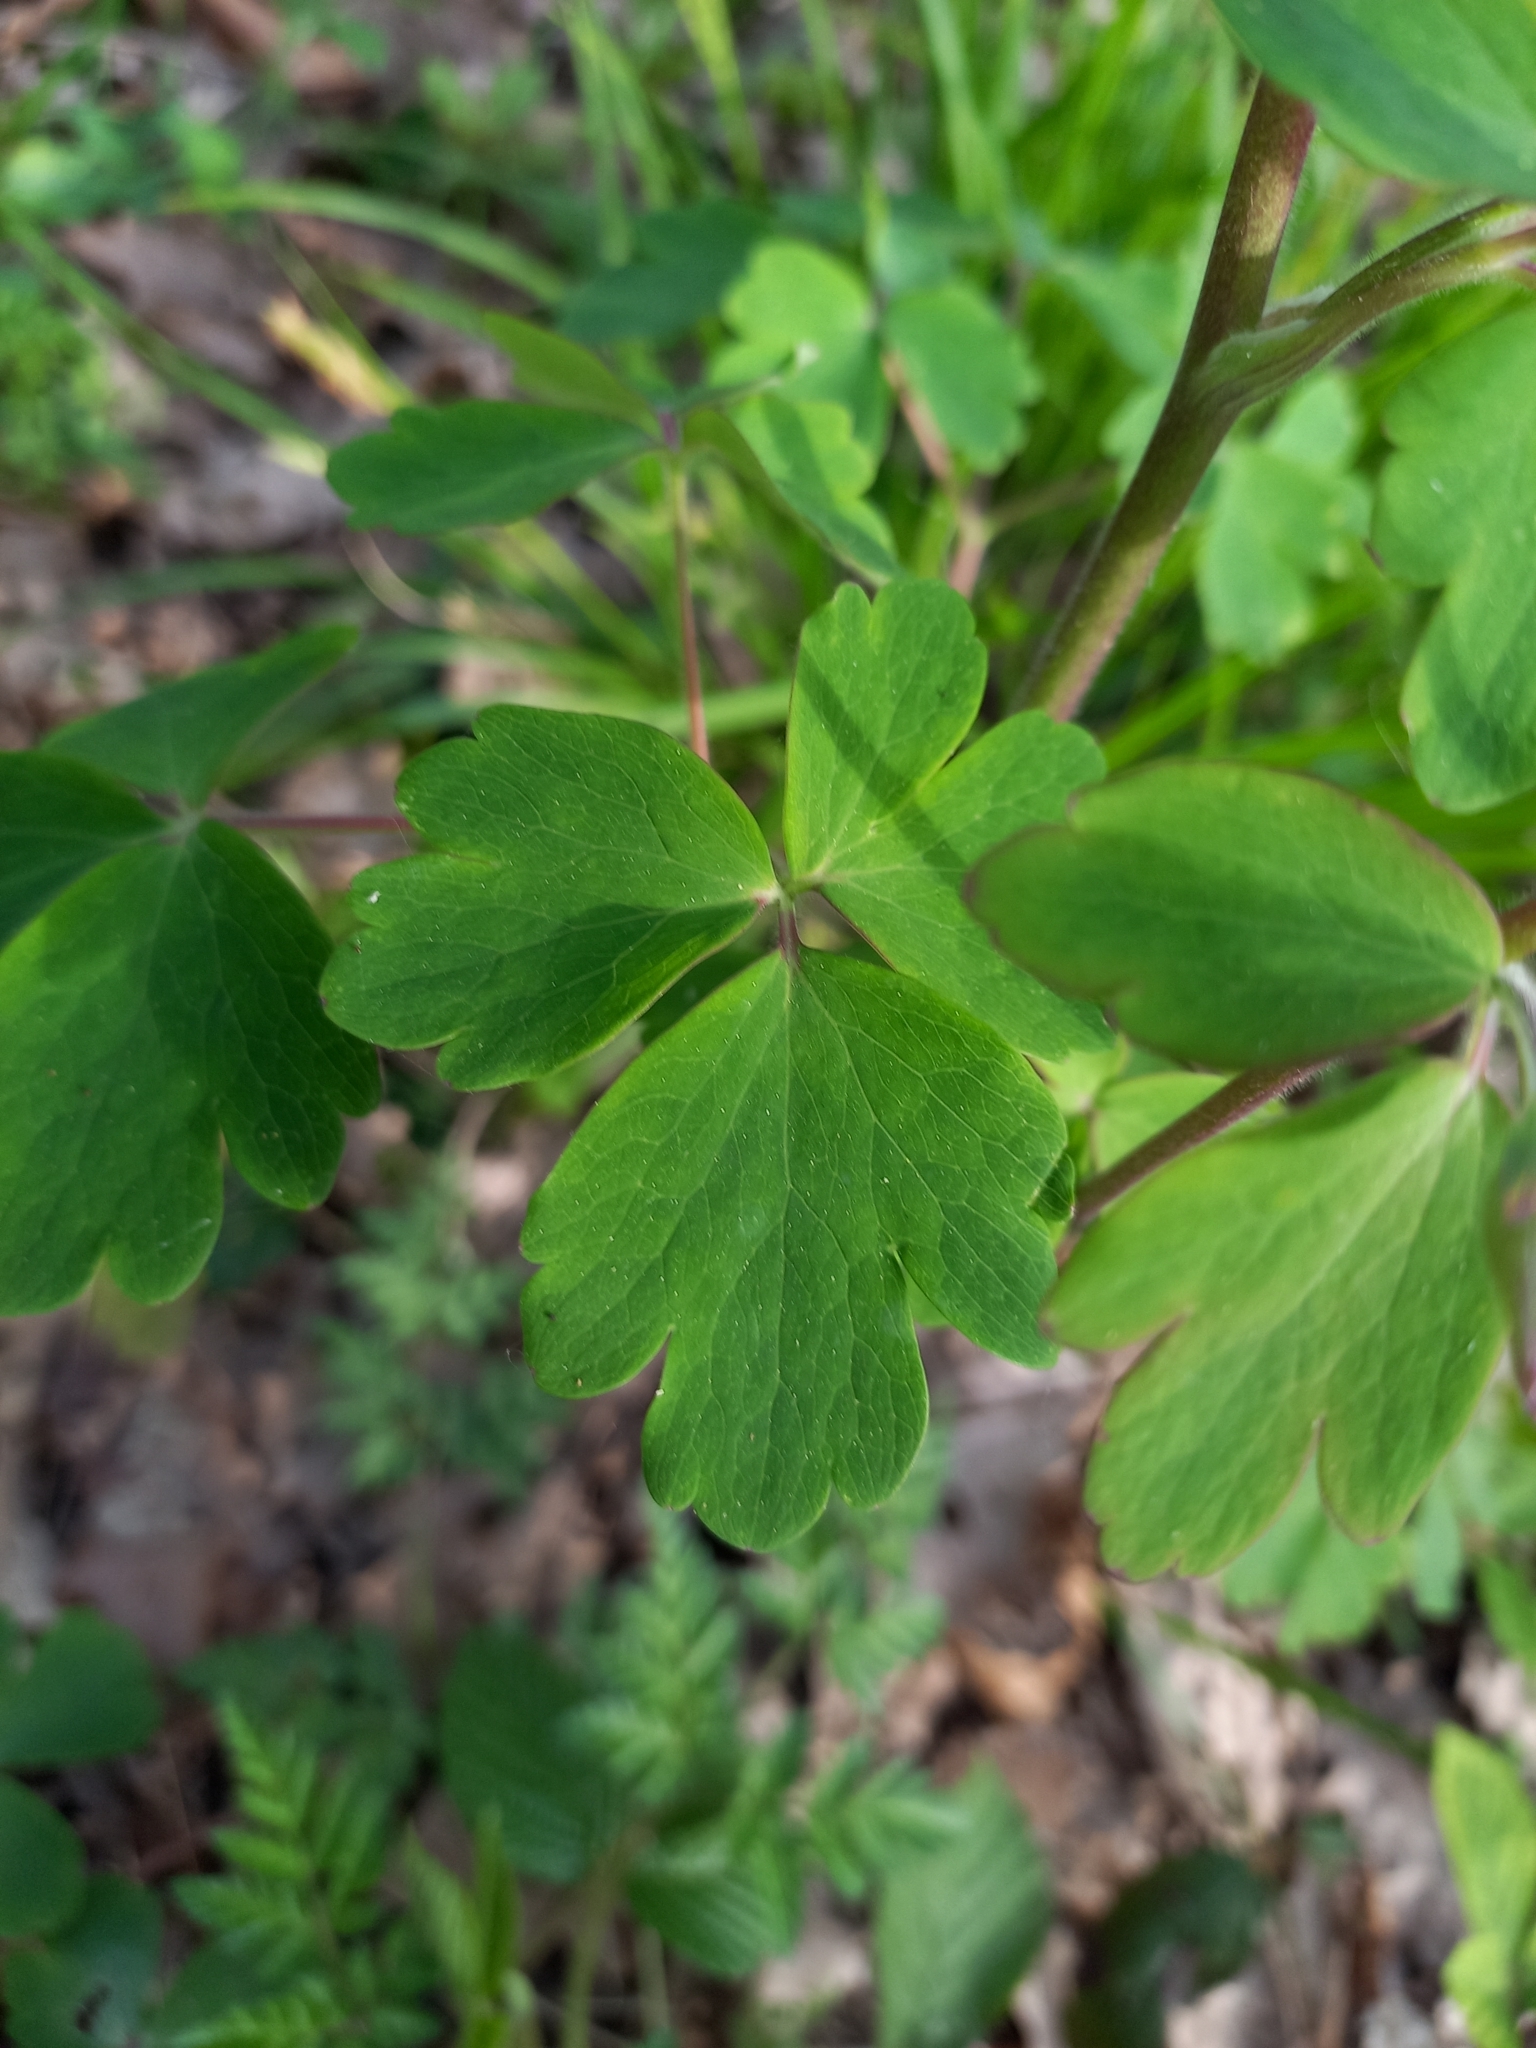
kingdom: Plantae
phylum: Tracheophyta
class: Magnoliopsida
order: Ranunculales
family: Ranunculaceae
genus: Aquilegia
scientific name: Aquilegia vulgaris
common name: Columbine
